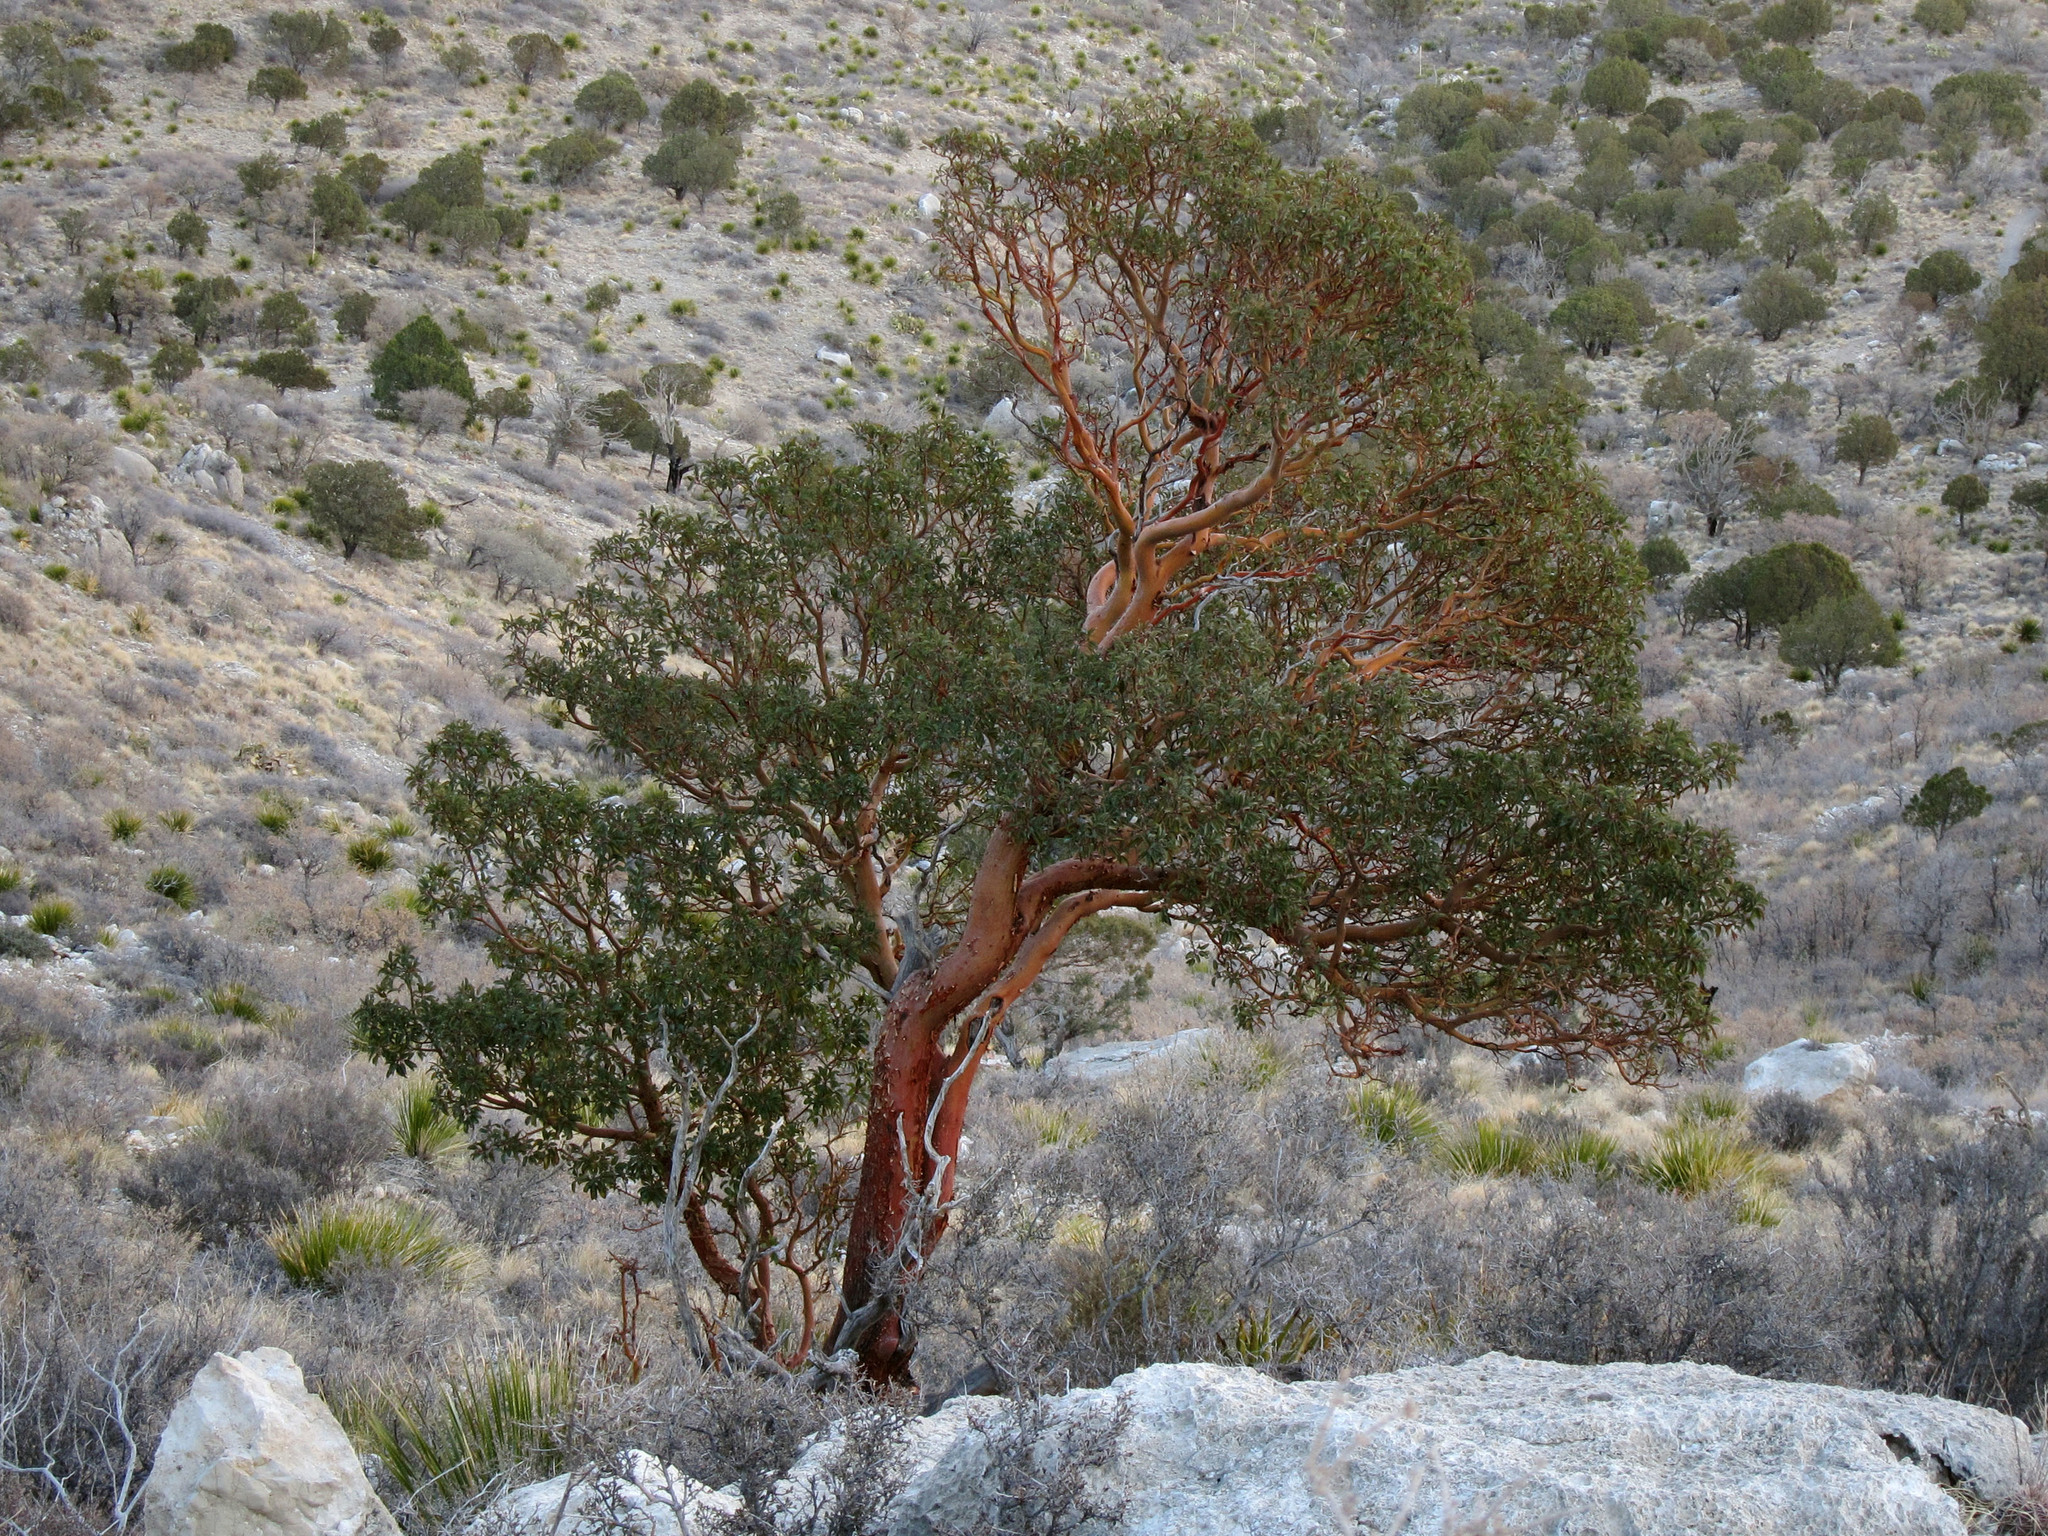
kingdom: Plantae
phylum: Tracheophyta
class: Magnoliopsida
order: Ericales
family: Ericaceae
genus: Arbutus
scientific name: Arbutus xalapensis
